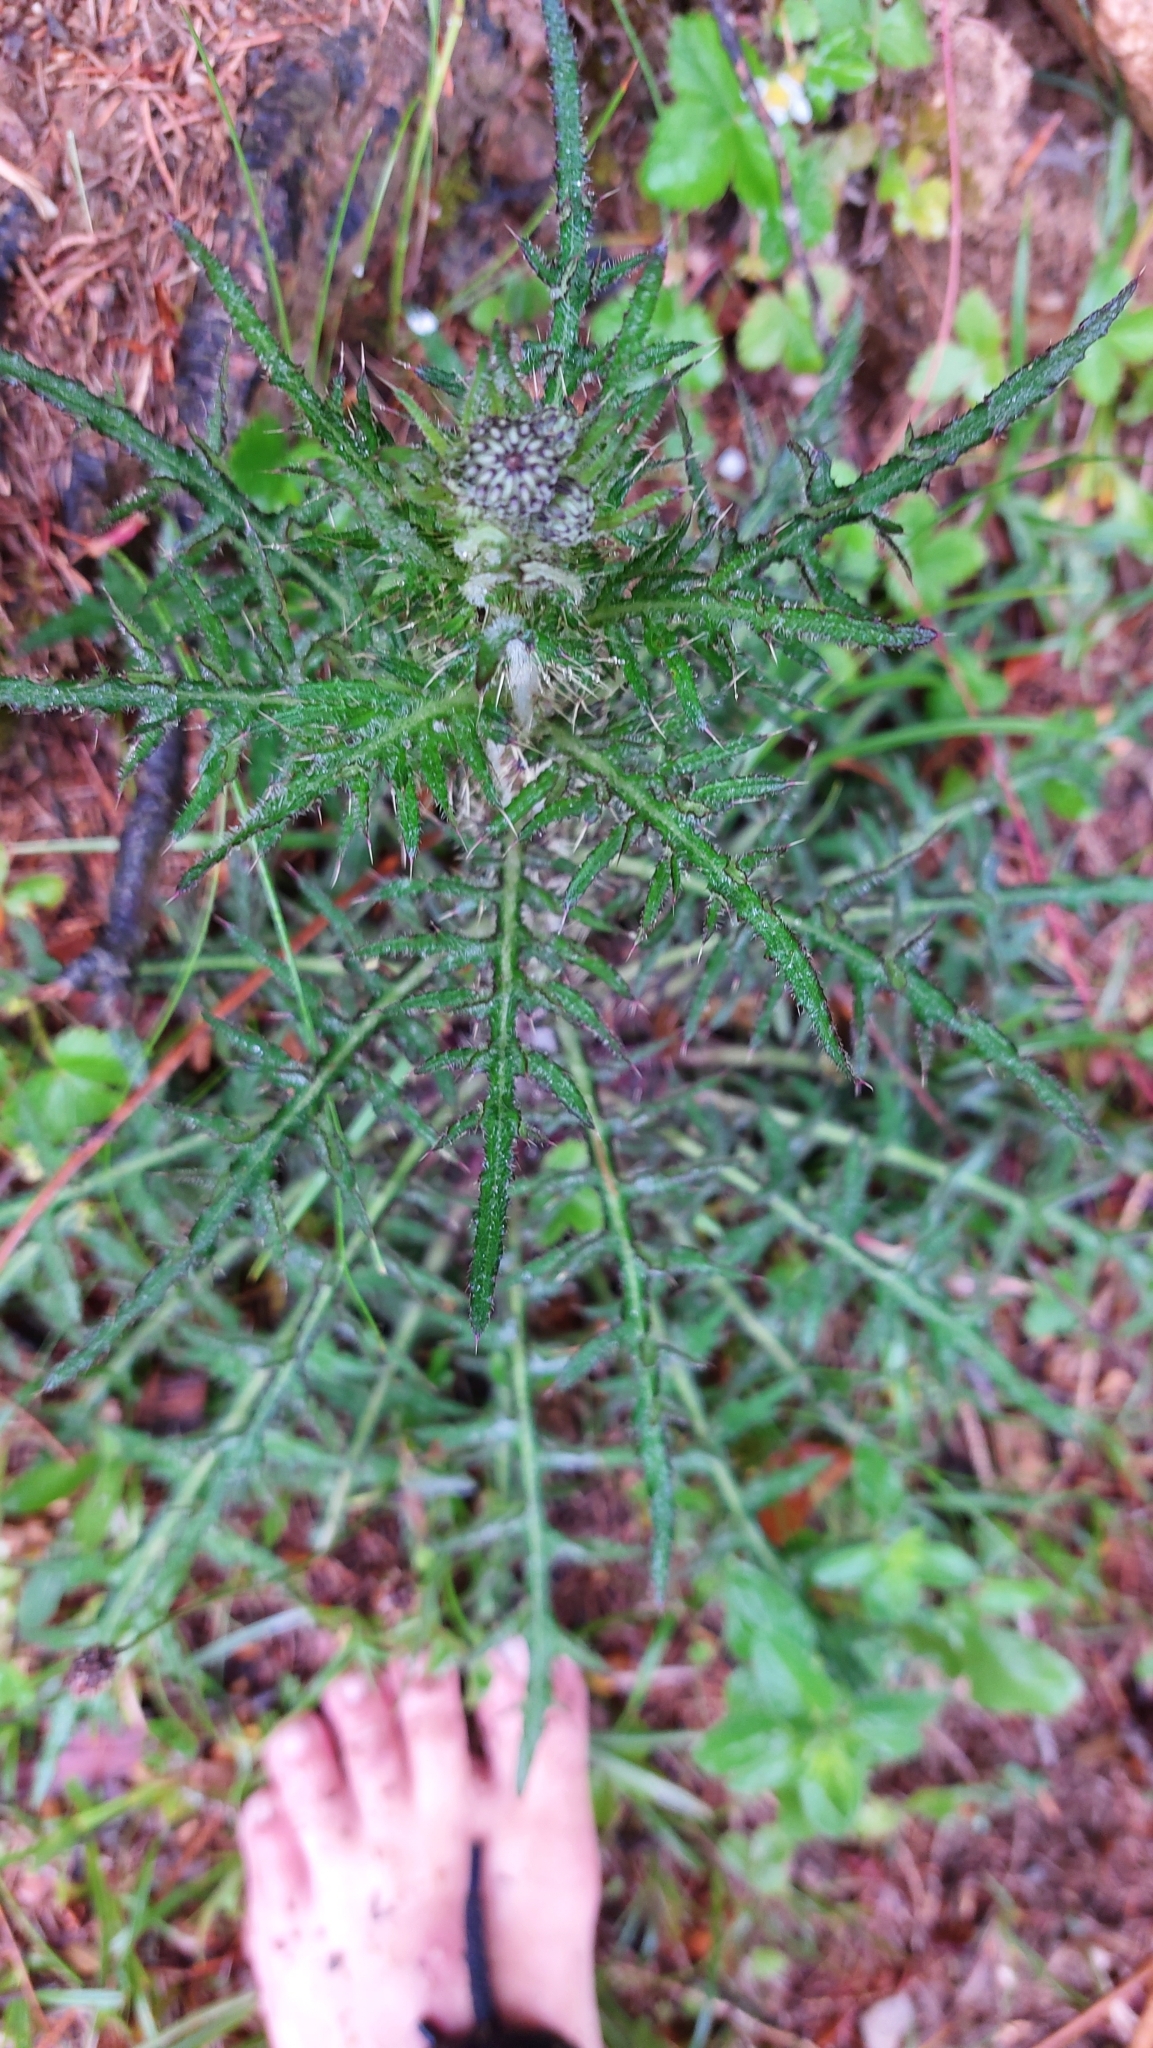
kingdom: Plantae
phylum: Tracheophyta
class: Magnoliopsida
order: Asterales
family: Asteraceae
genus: Cirsium
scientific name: Cirsium palustre
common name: Marsh thistle
